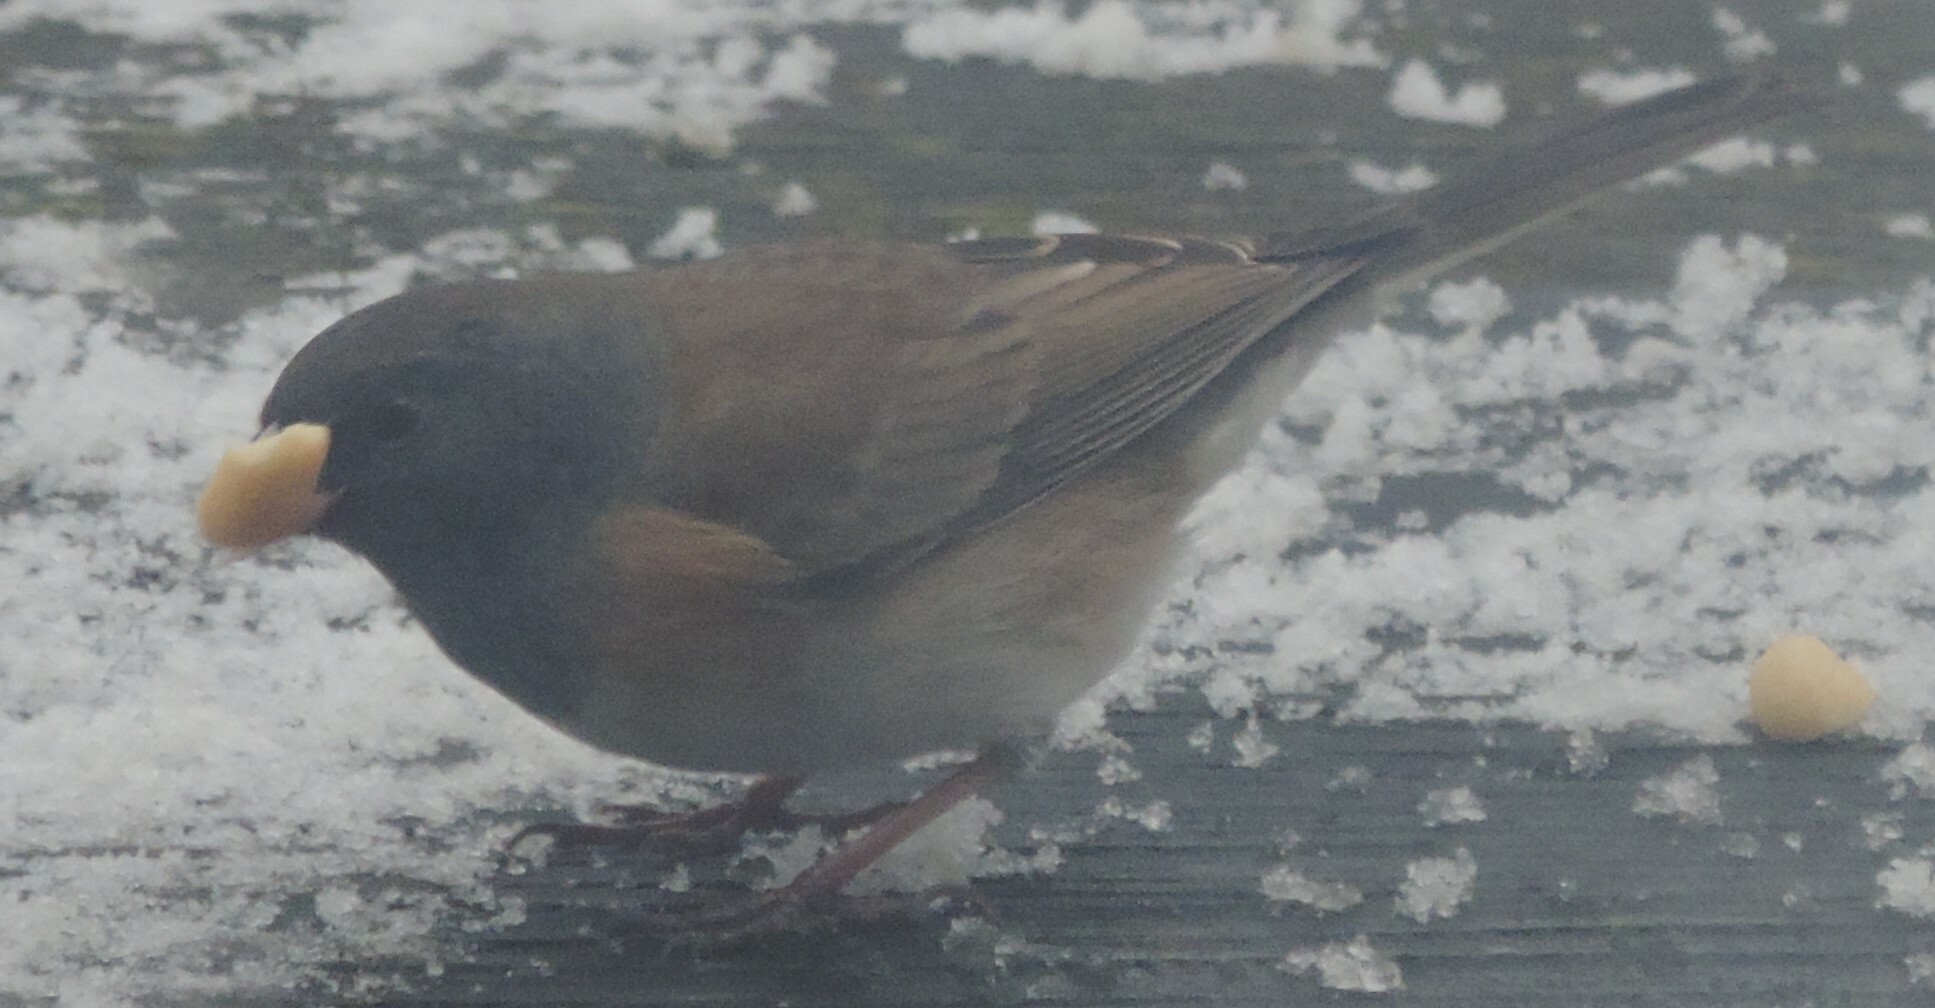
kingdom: Animalia
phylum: Chordata
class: Aves
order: Passeriformes
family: Passerellidae
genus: Junco
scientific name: Junco hyemalis
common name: Dark-eyed junco
